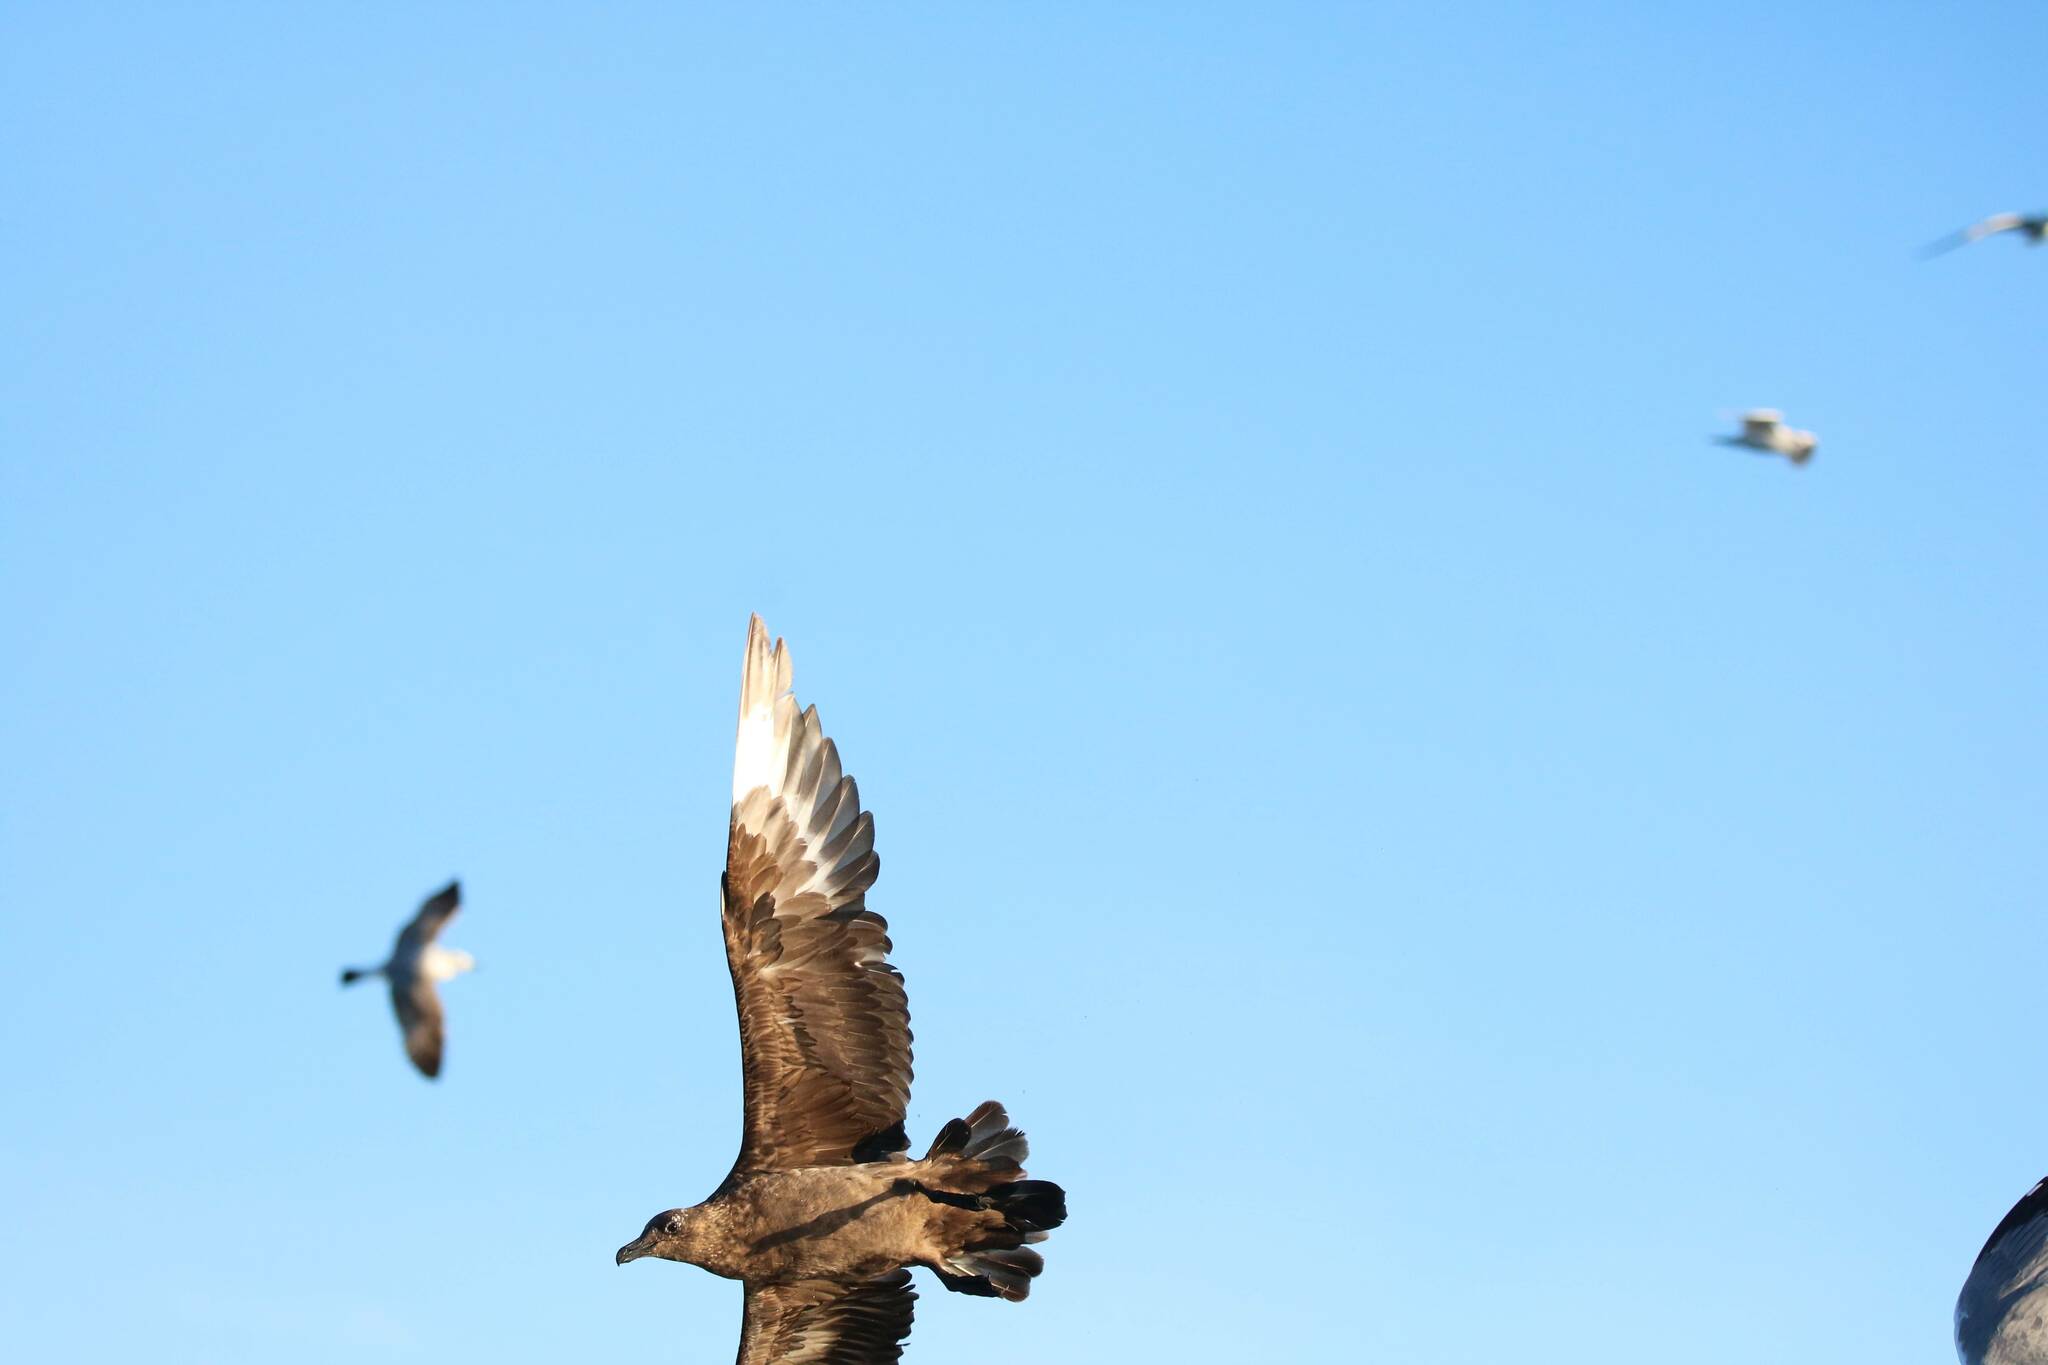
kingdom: Animalia
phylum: Chordata
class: Aves
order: Charadriiformes
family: Stercorariidae
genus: Stercorarius
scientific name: Stercorarius skua
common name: Great skua
